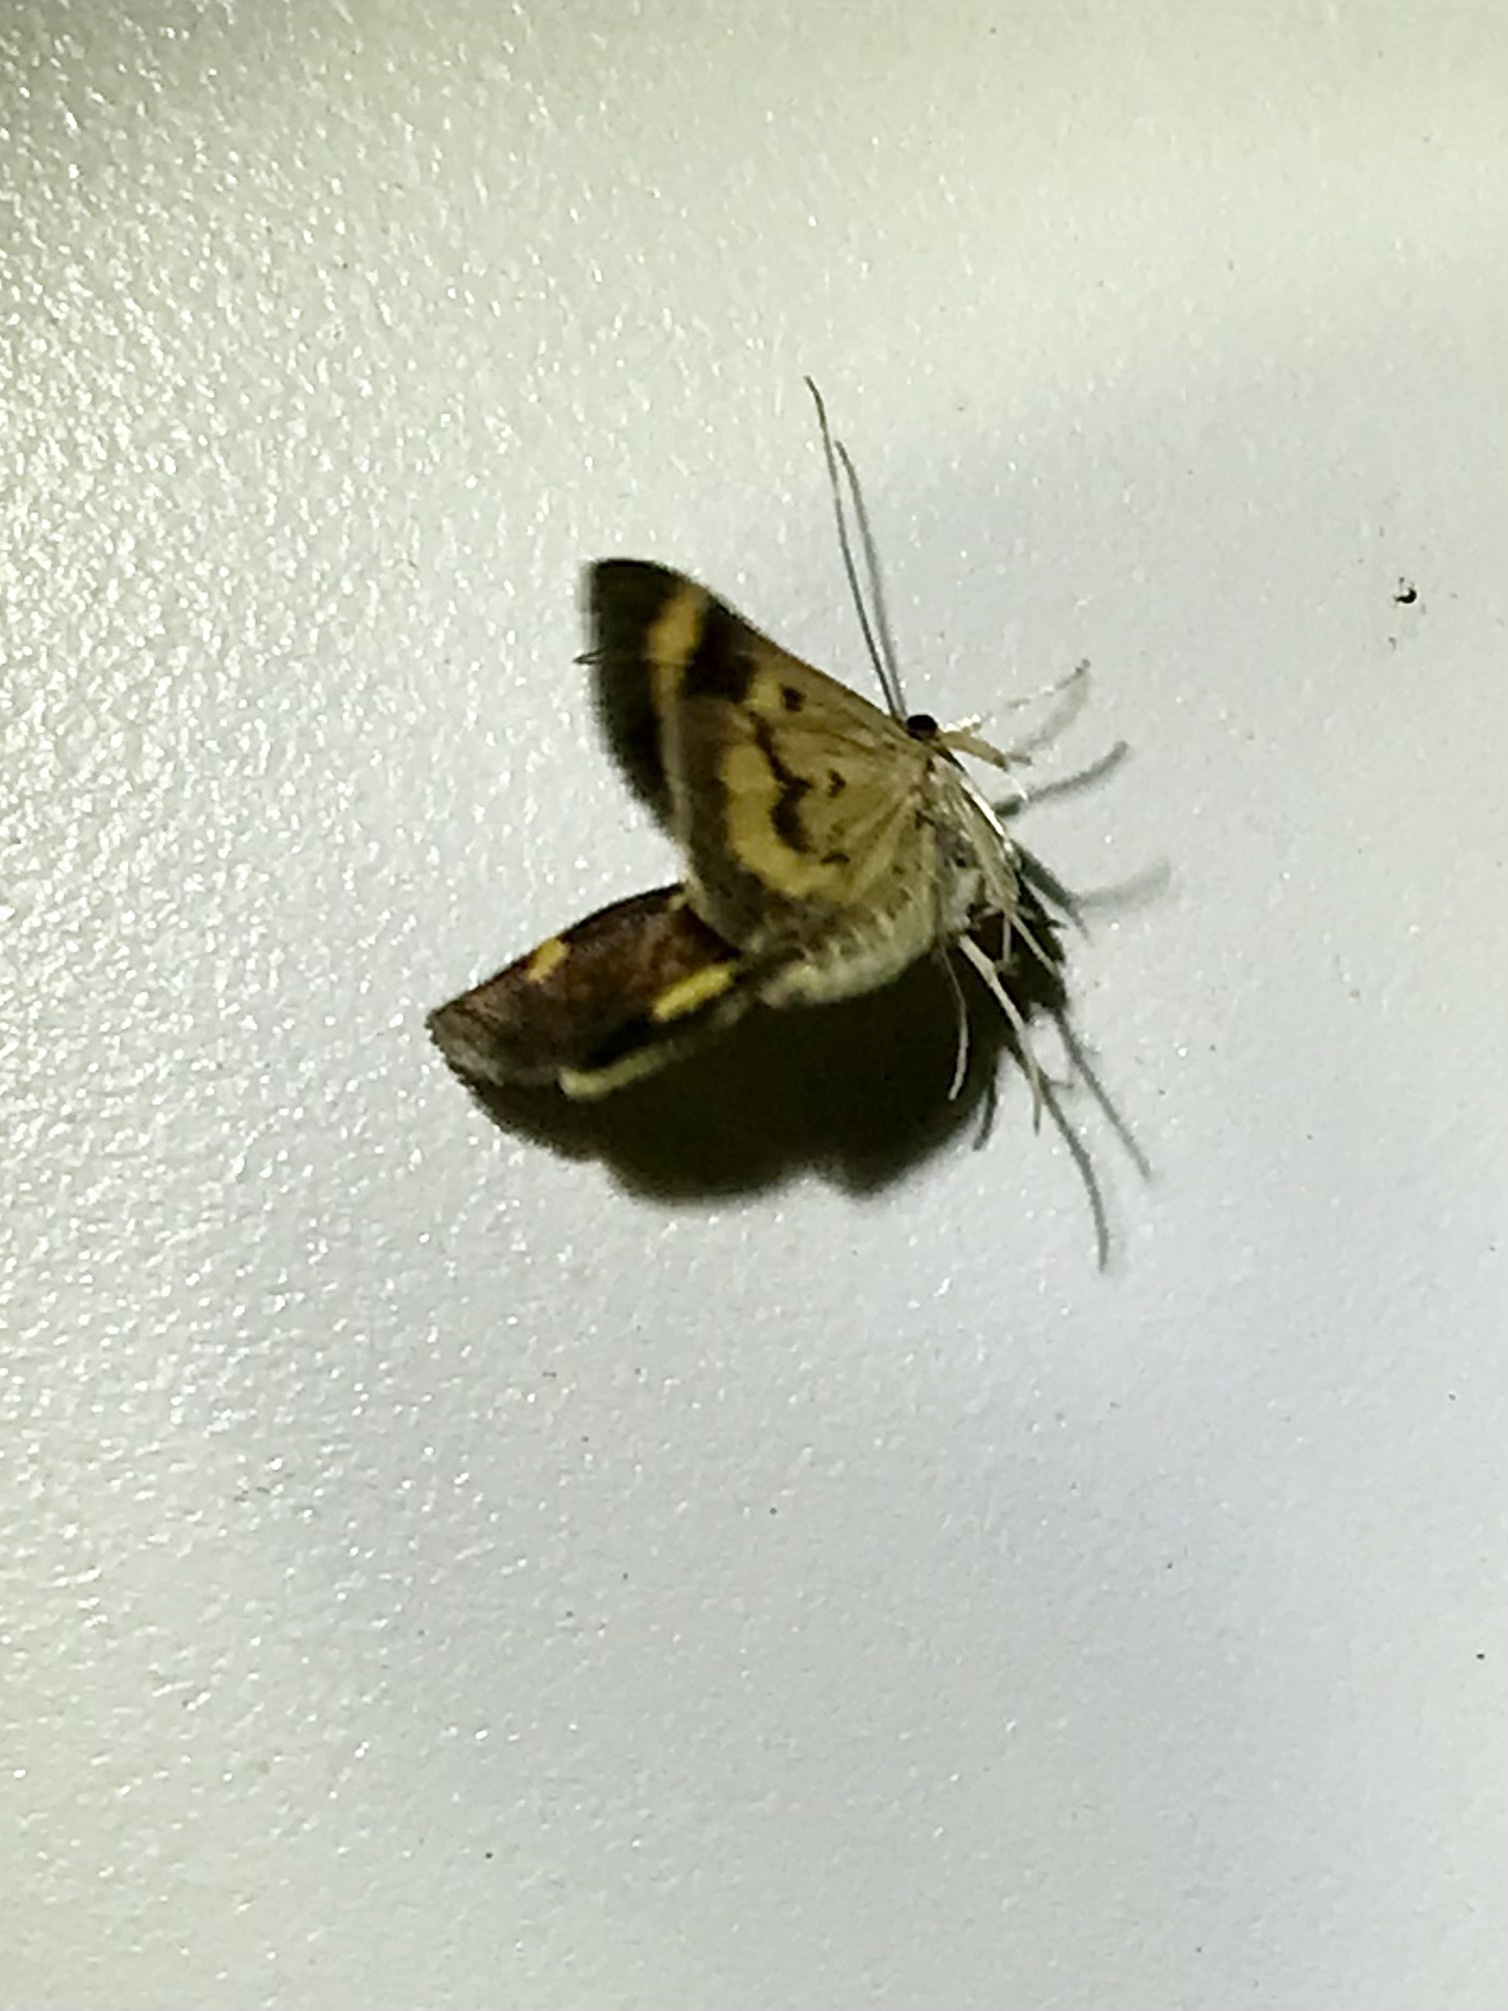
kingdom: Animalia
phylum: Arthropoda
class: Insecta
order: Lepidoptera
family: Crambidae
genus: Pyrausta
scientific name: Pyrausta generosa
